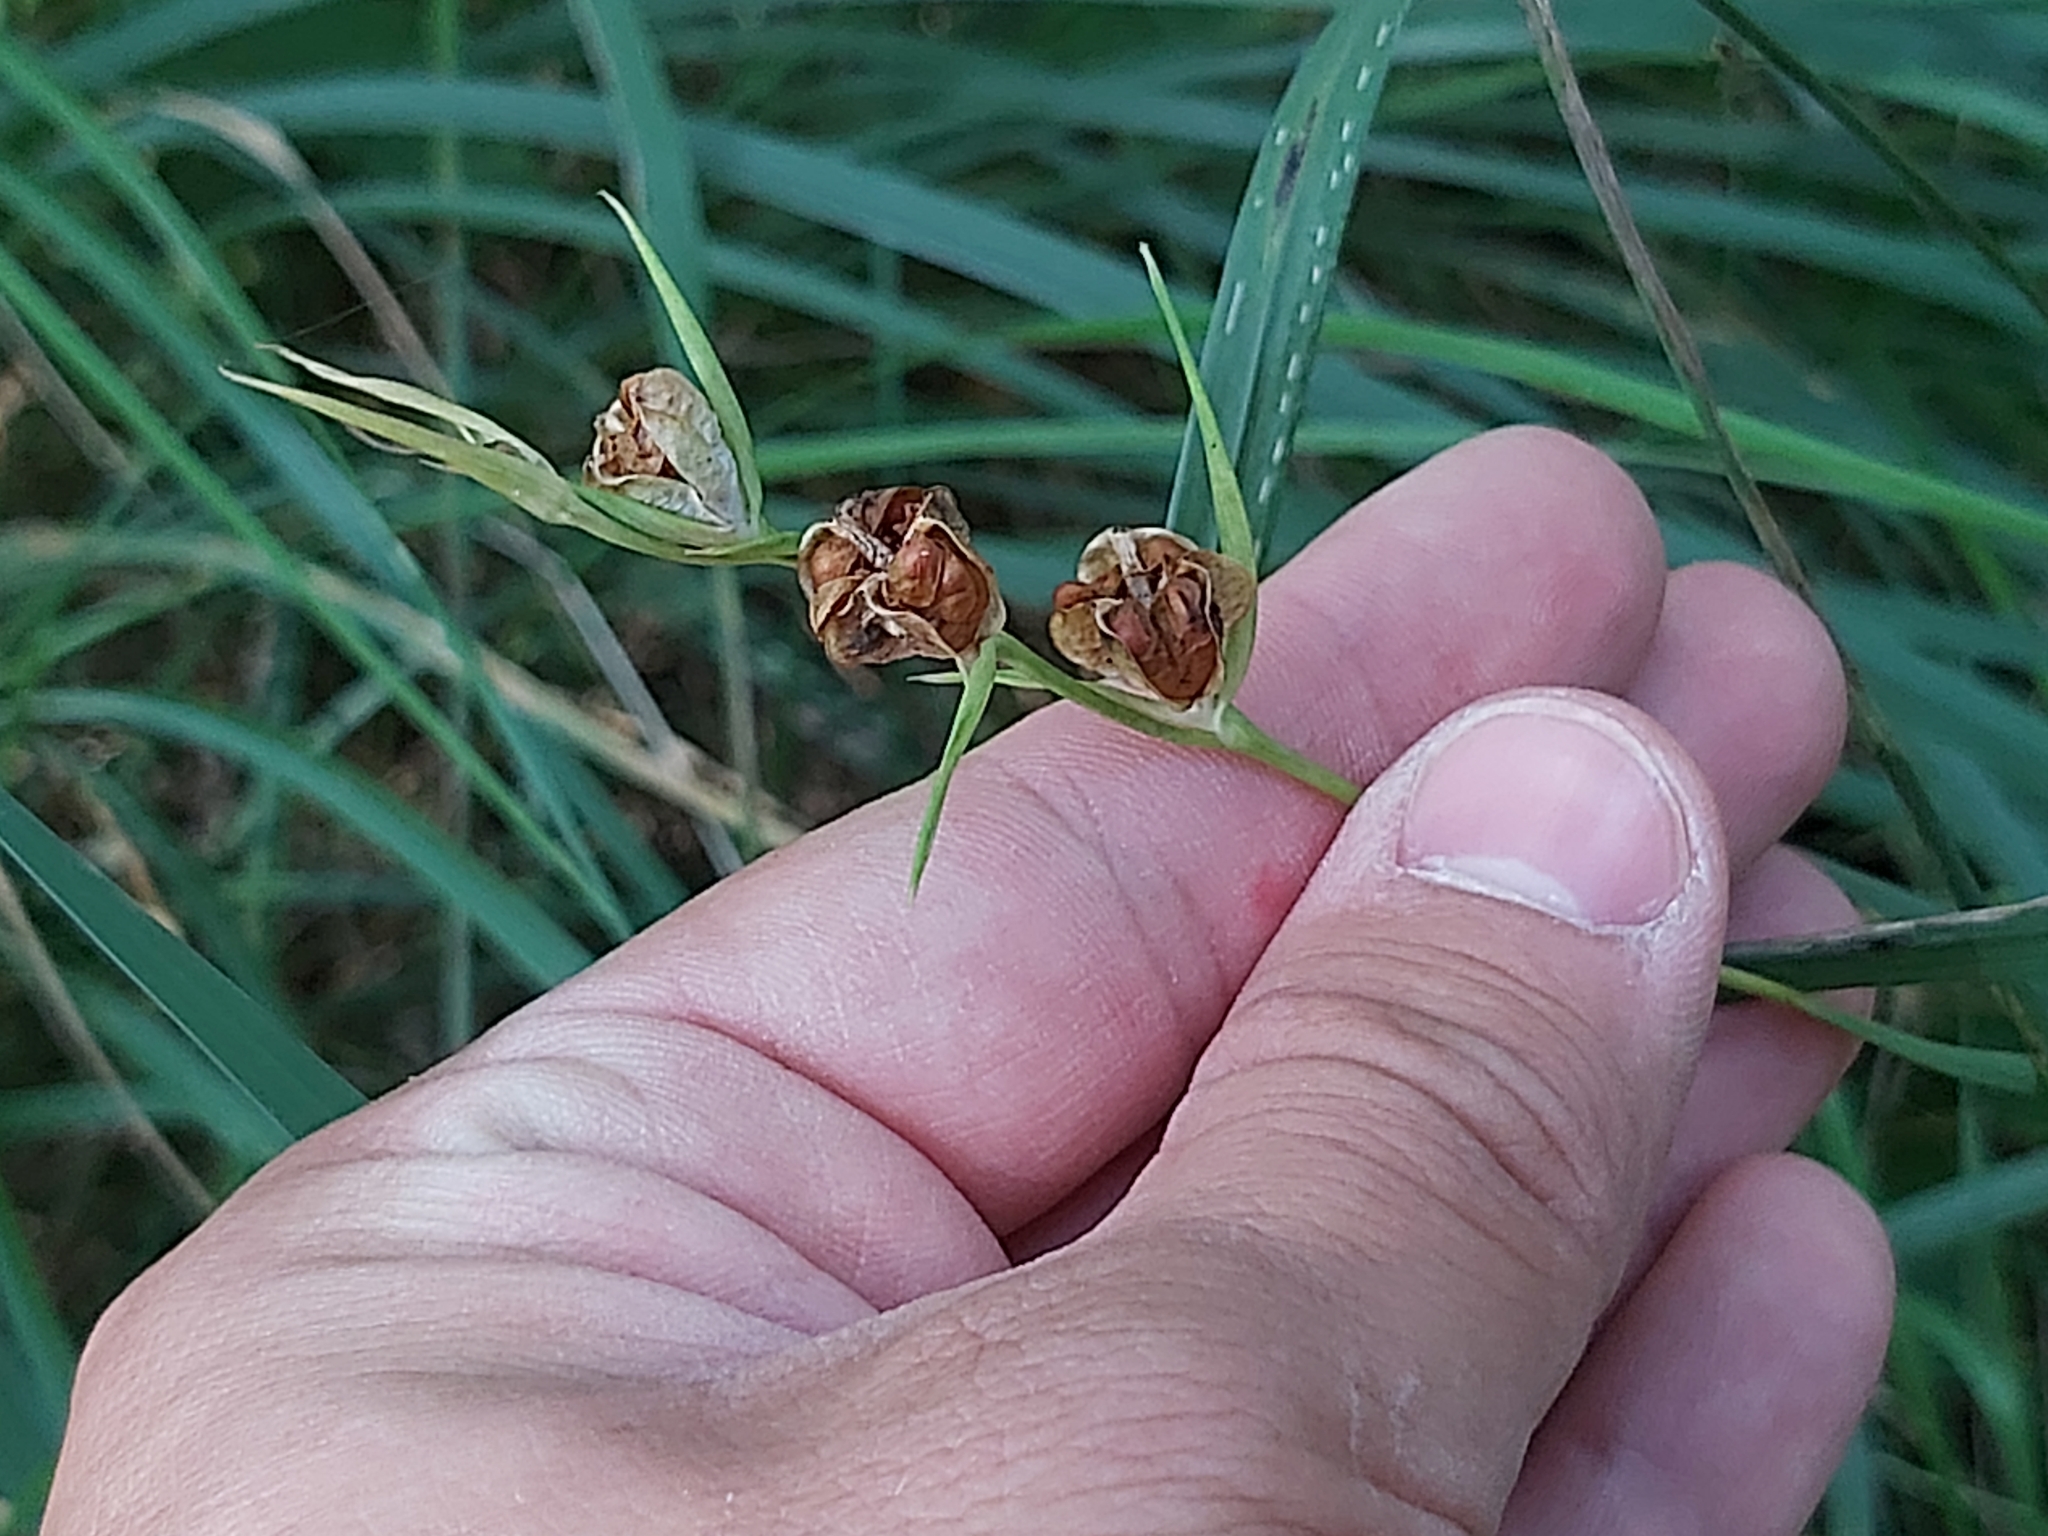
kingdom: Plantae
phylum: Tracheophyta
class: Liliopsida
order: Asparagales
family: Iridaceae
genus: Gladiolus
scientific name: Gladiolus imbricatus
